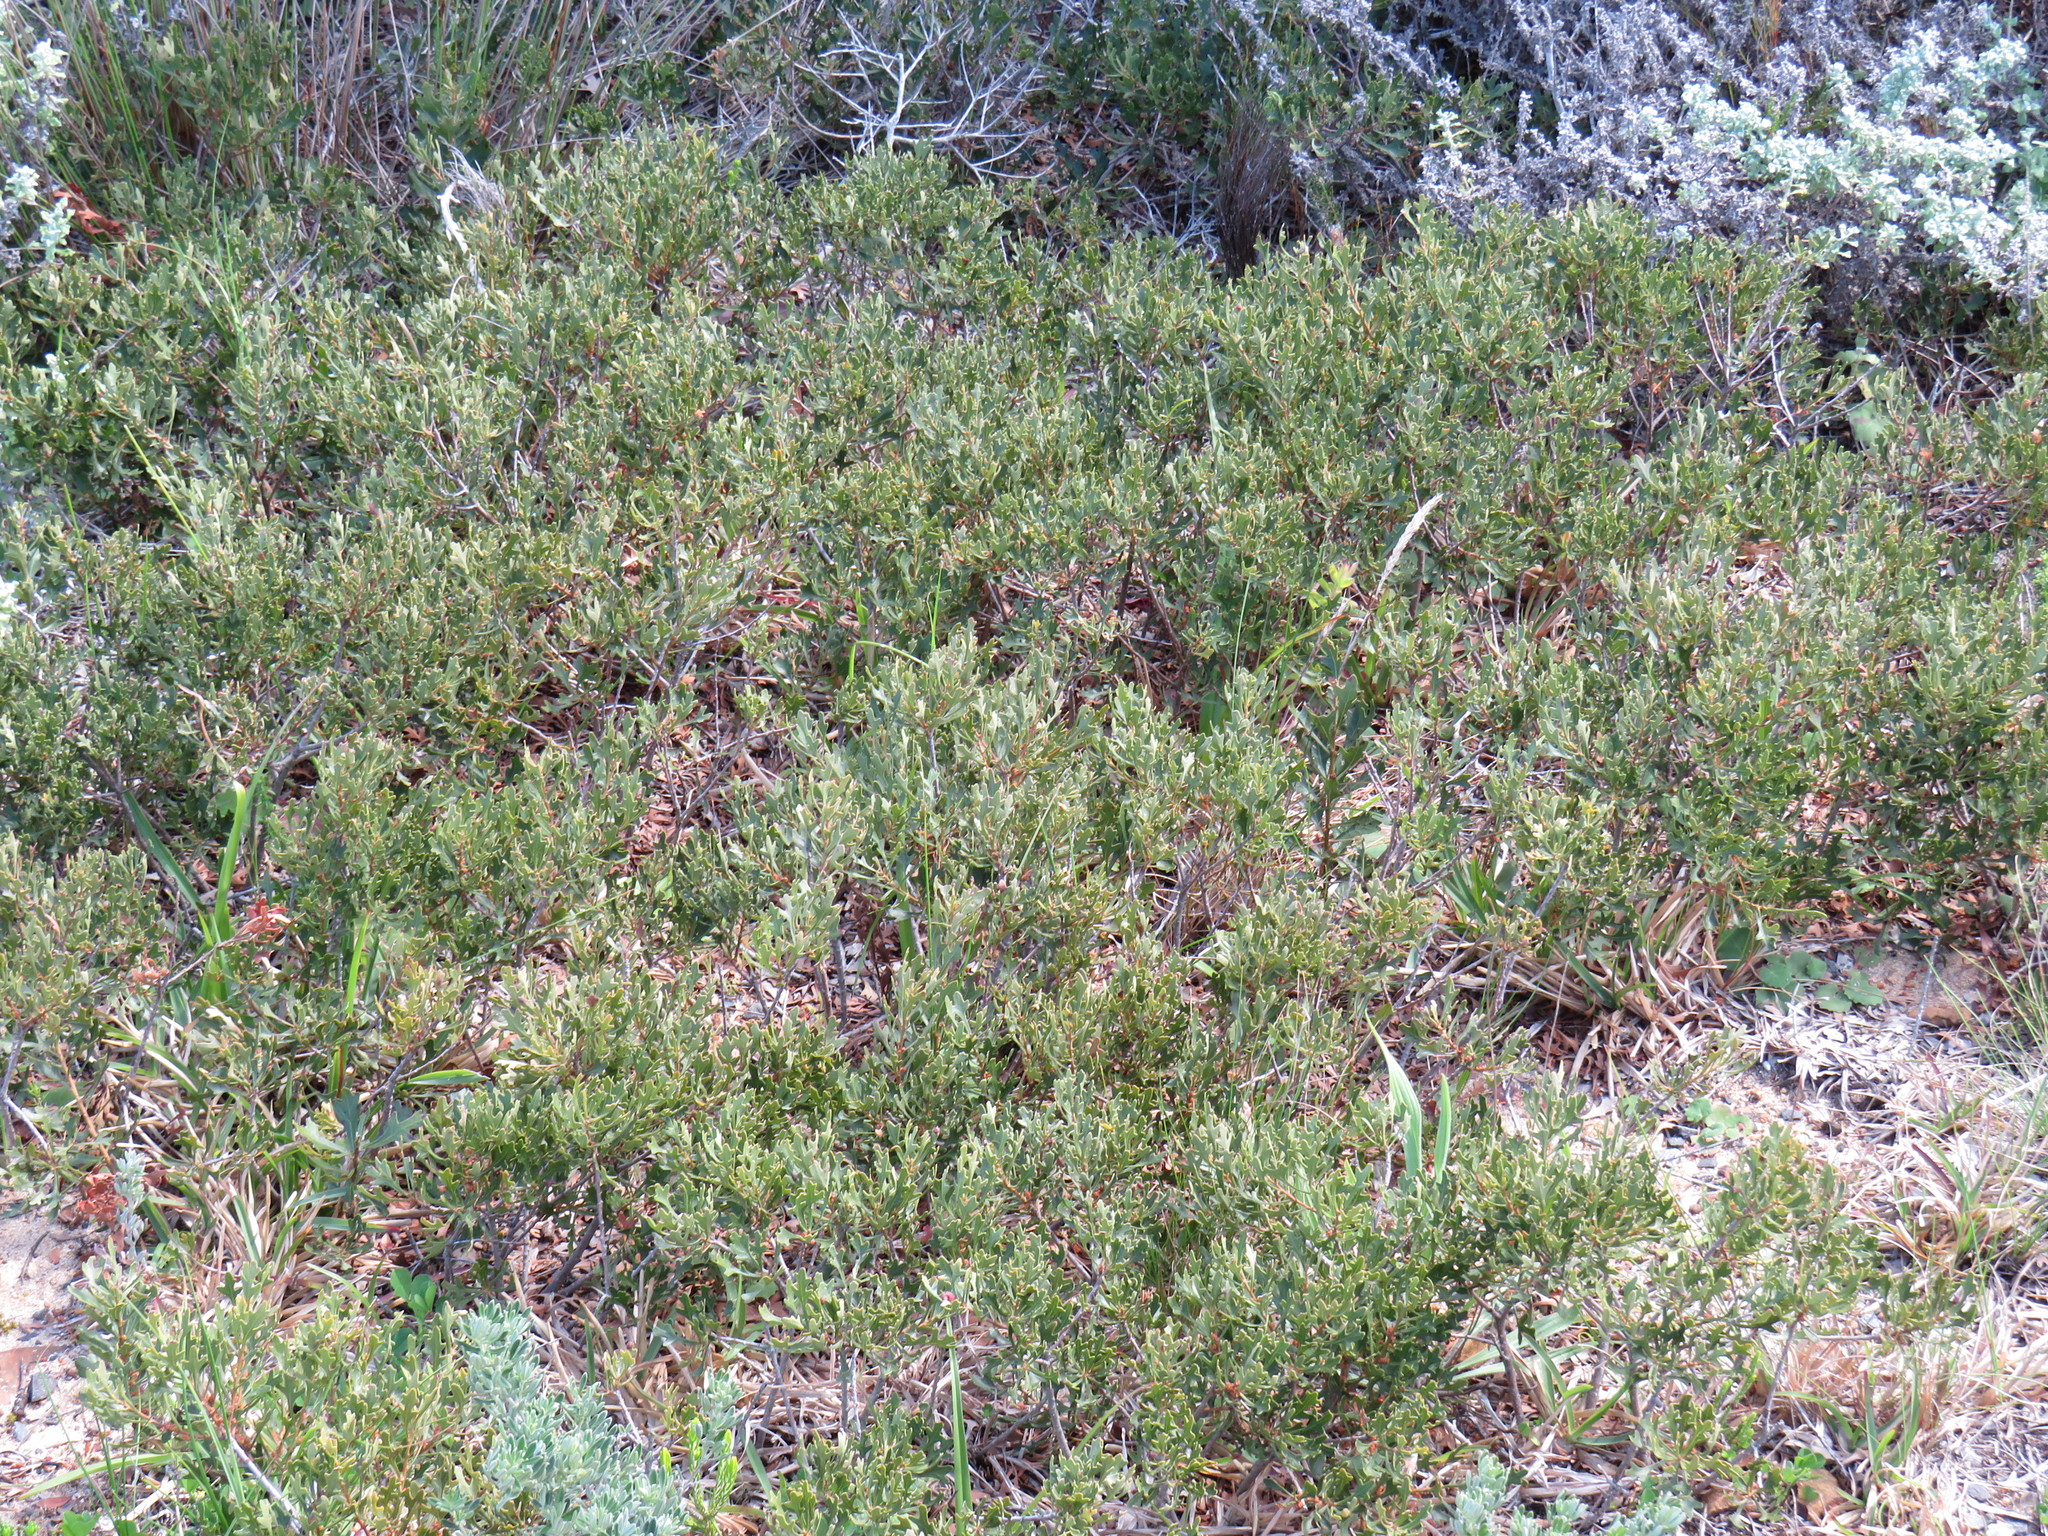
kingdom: Plantae
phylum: Tracheophyta
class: Magnoliopsida
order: Fagales
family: Myricaceae
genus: Morella
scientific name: Morella quercifolia
